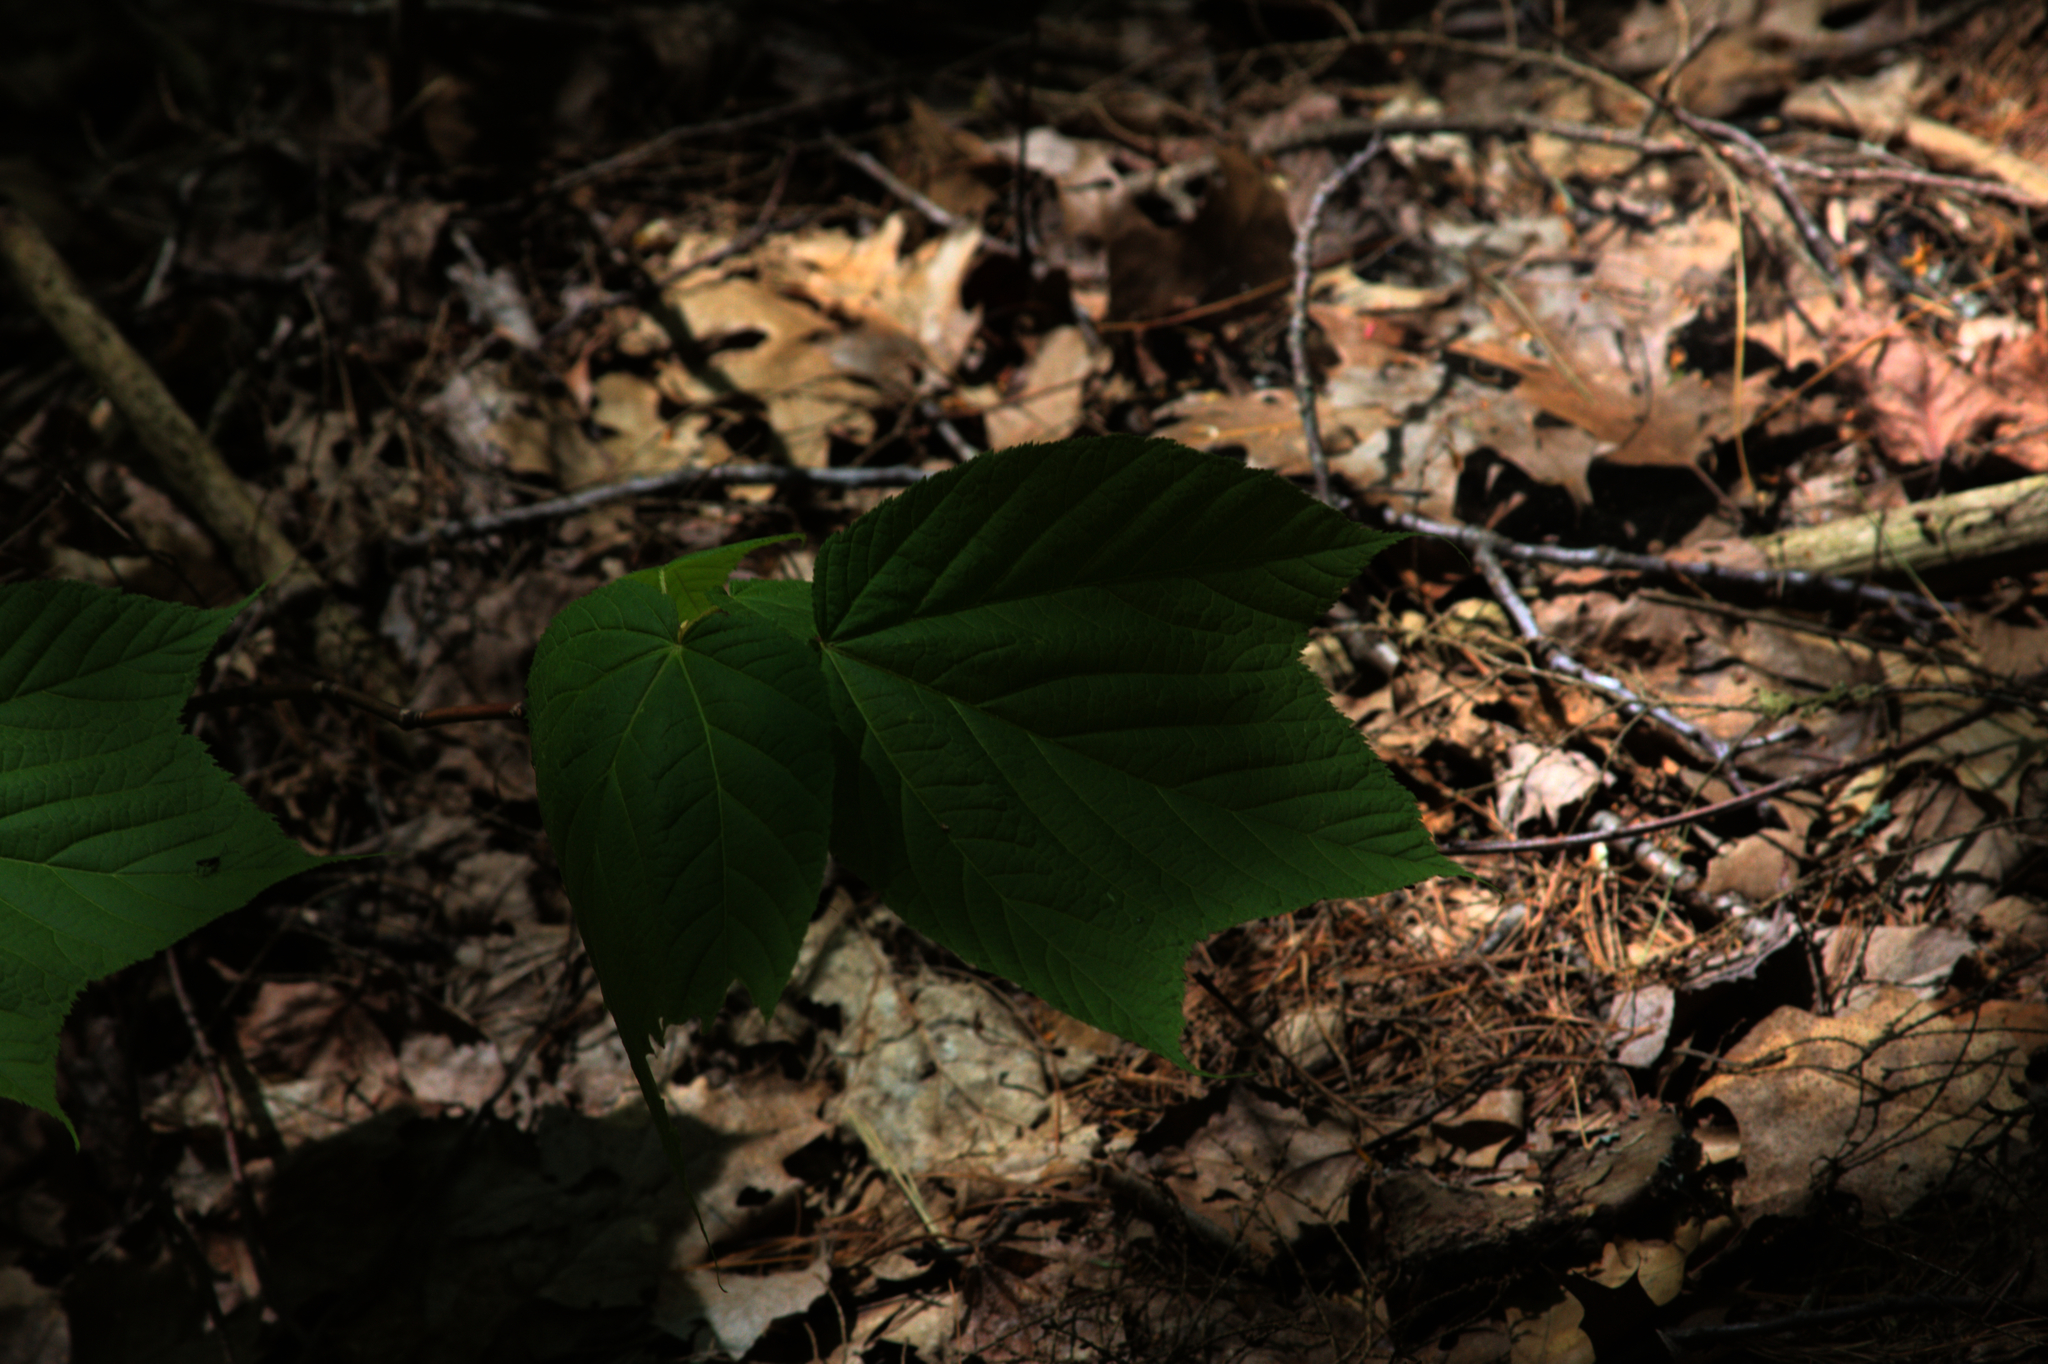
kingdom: Plantae
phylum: Tracheophyta
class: Magnoliopsida
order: Sapindales
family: Sapindaceae
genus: Acer
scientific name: Acer pensylvanicum
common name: Moosewood
